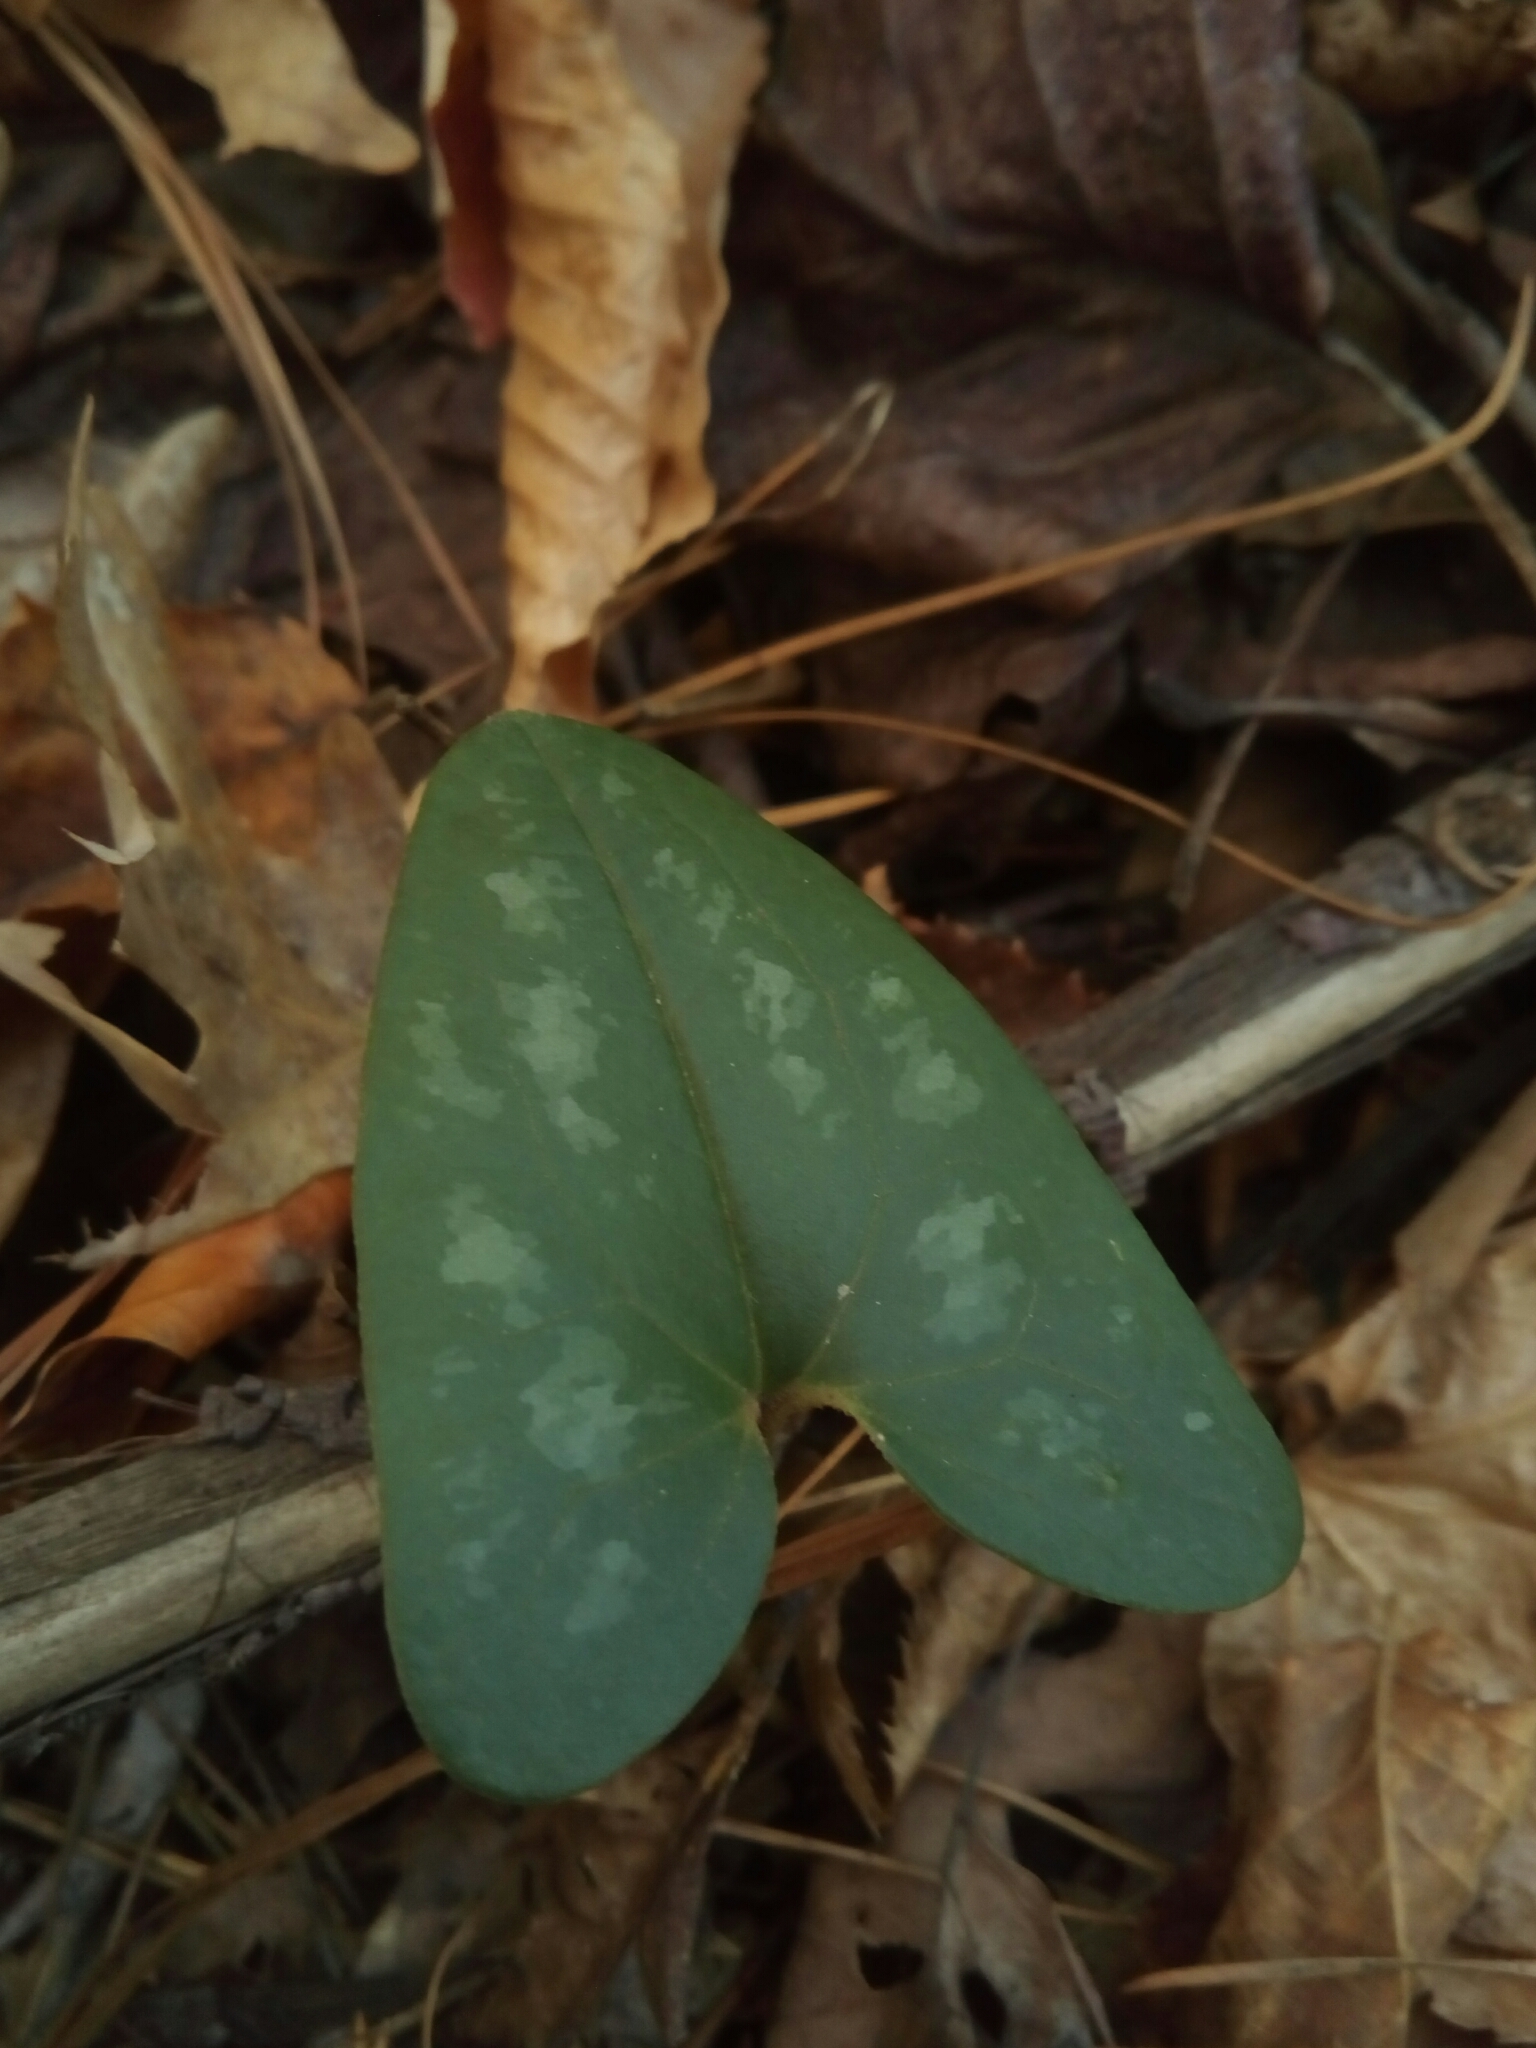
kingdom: Plantae
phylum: Tracheophyta
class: Magnoliopsida
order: Piperales
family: Aristolochiaceae
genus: Hexastylis
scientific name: Hexastylis arifolia
